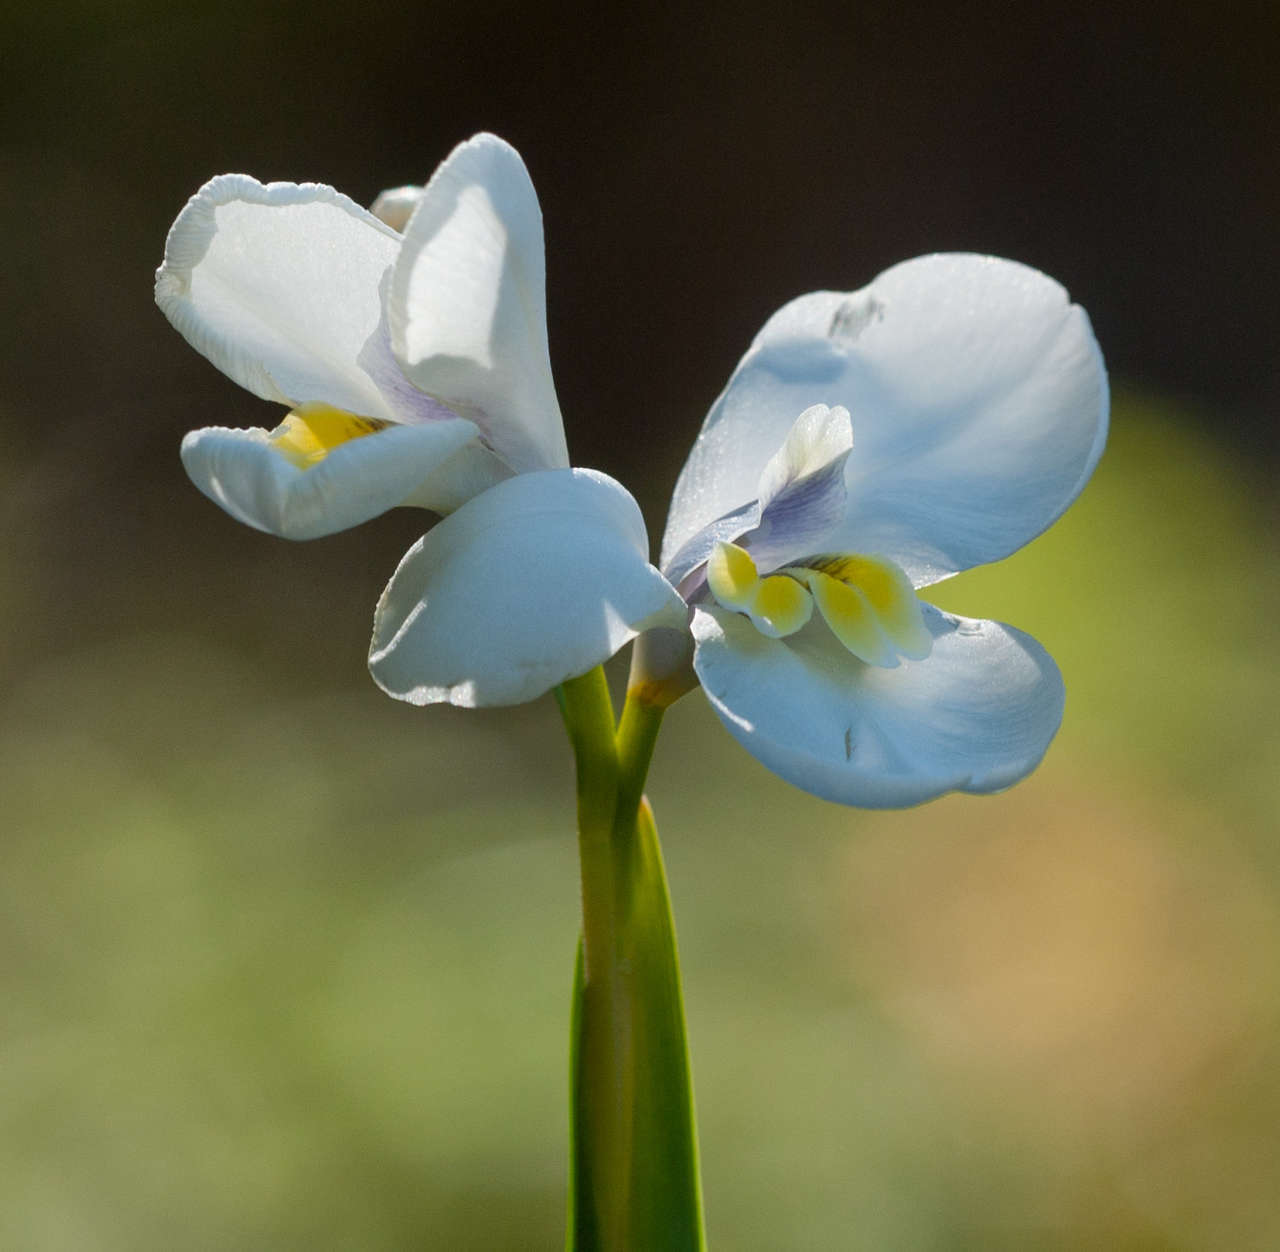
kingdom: Plantae
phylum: Tracheophyta
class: Liliopsida
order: Asparagales
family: Iridaceae
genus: Diplarrena
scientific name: Diplarrena moraea
